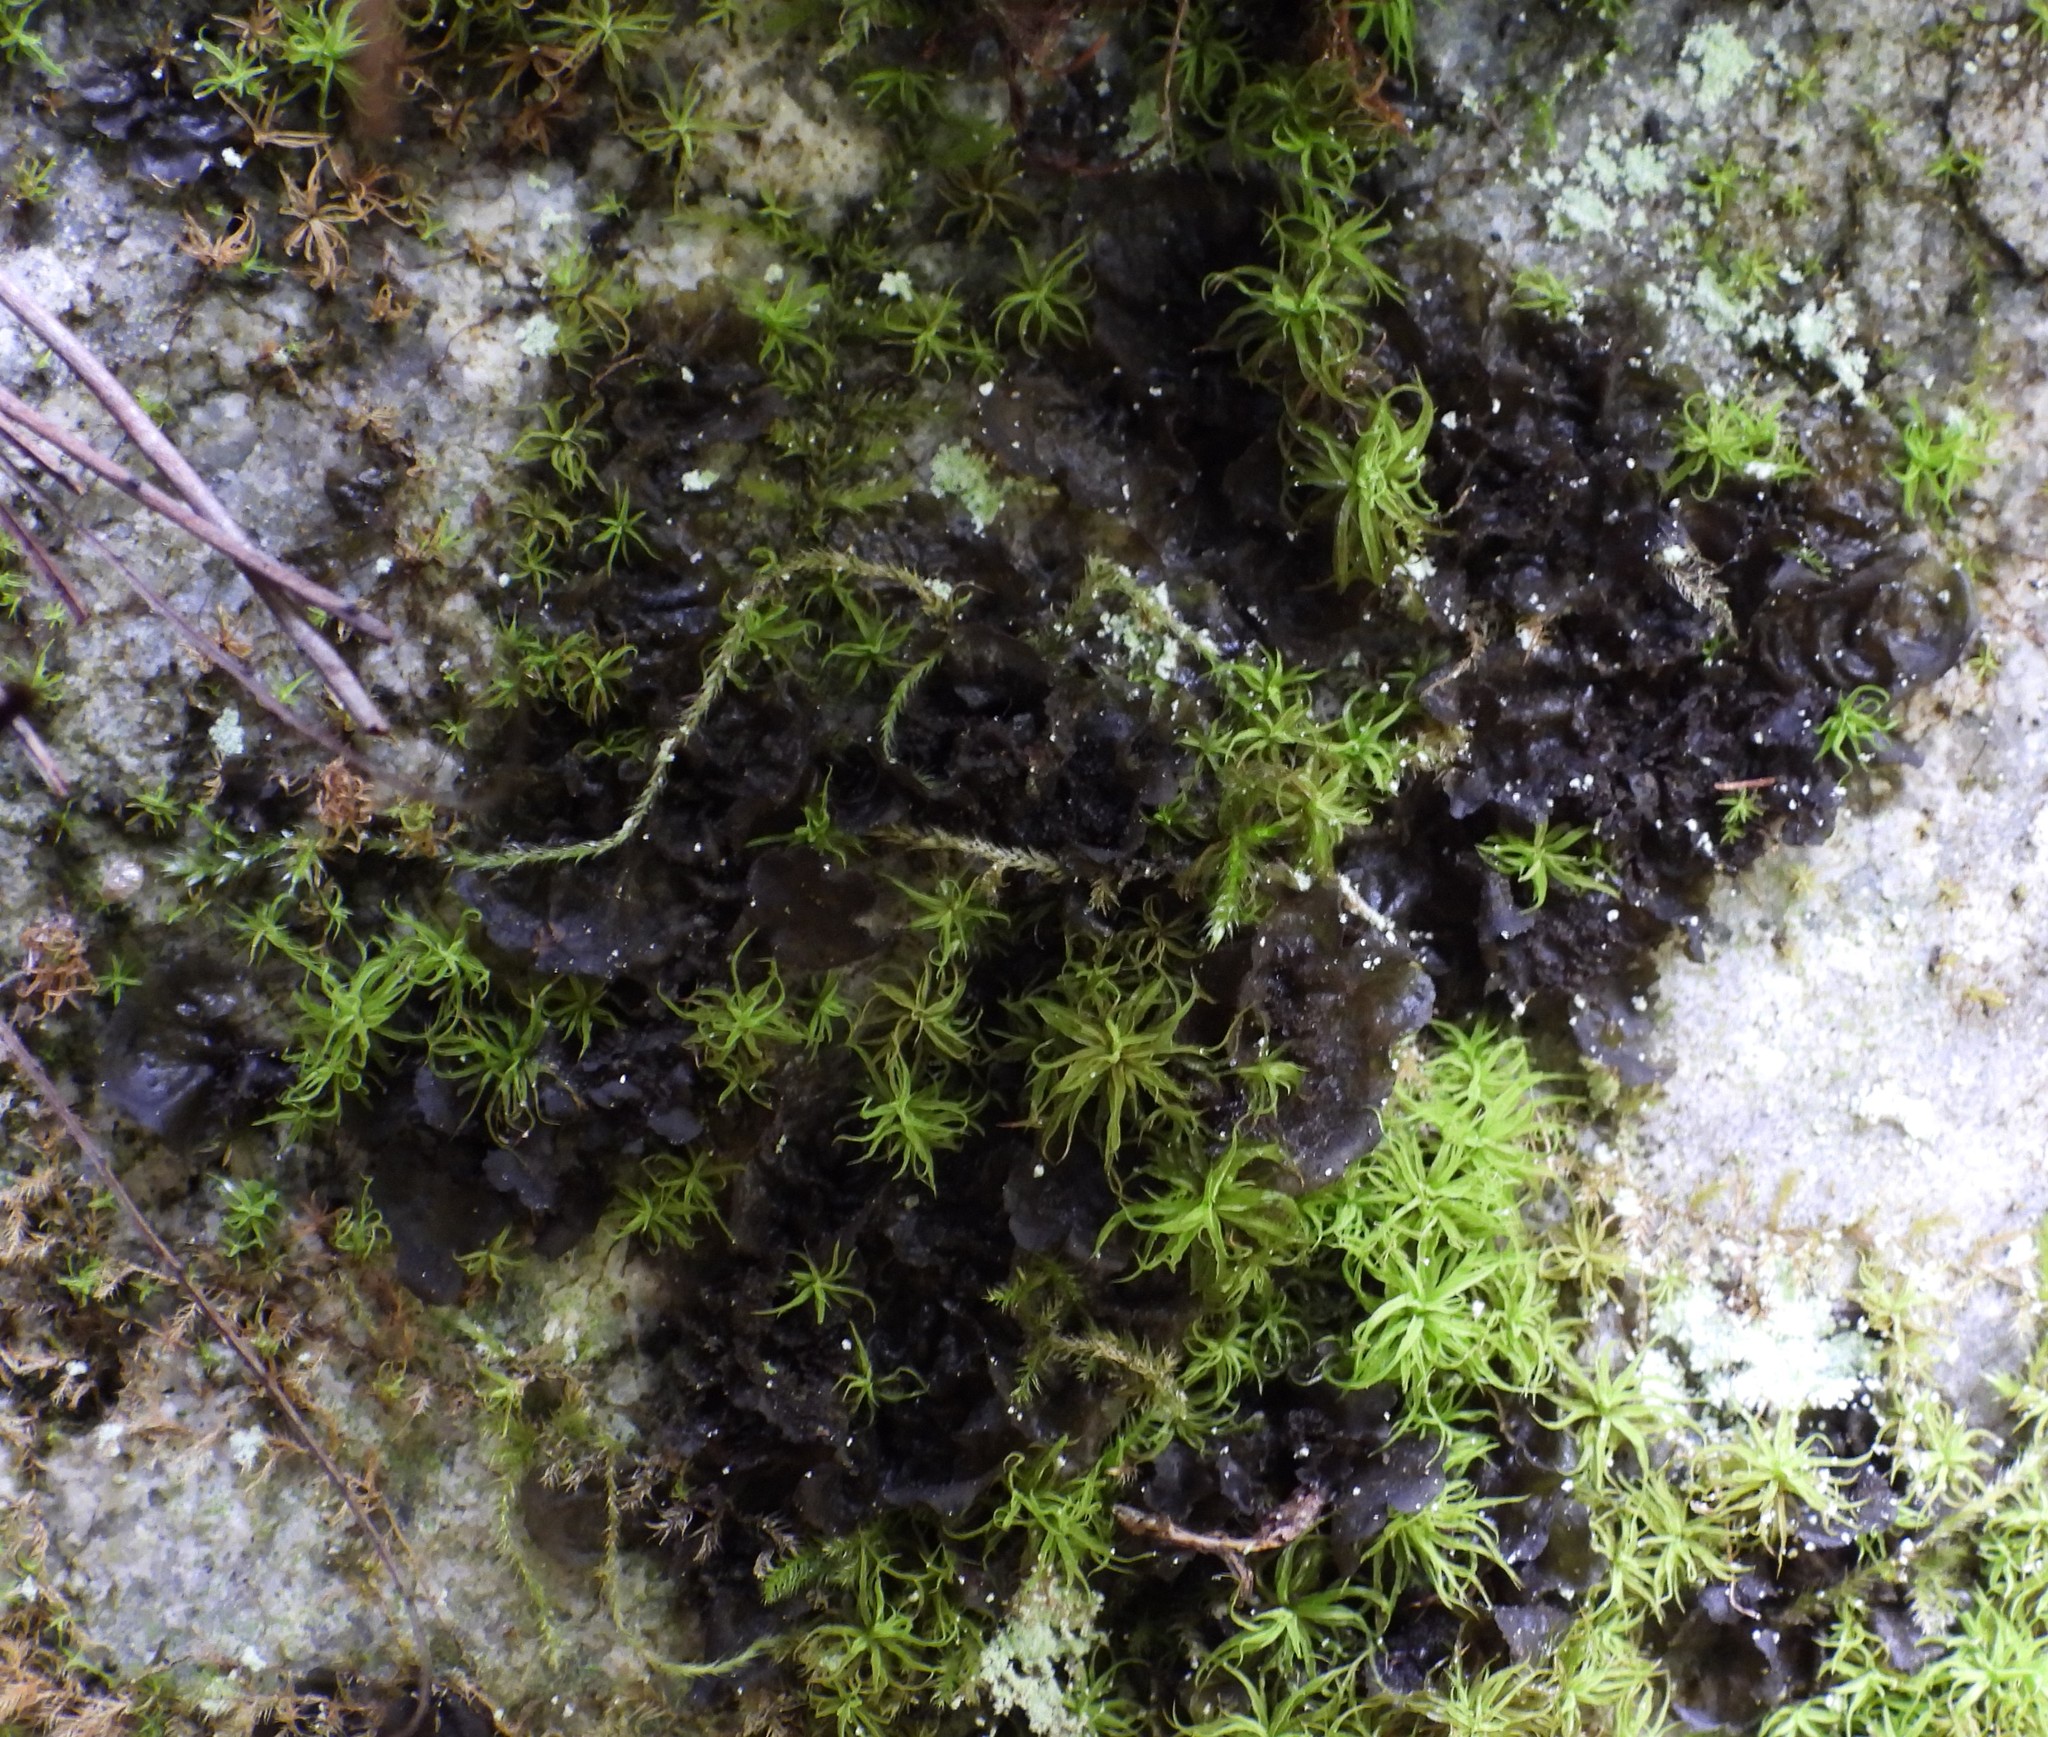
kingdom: Fungi
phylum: Ascomycota
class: Lecanoromycetes
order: Peltigerales
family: Collemataceae
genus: Collema
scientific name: Collema flaccidum
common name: Butterfly jelly lichen
